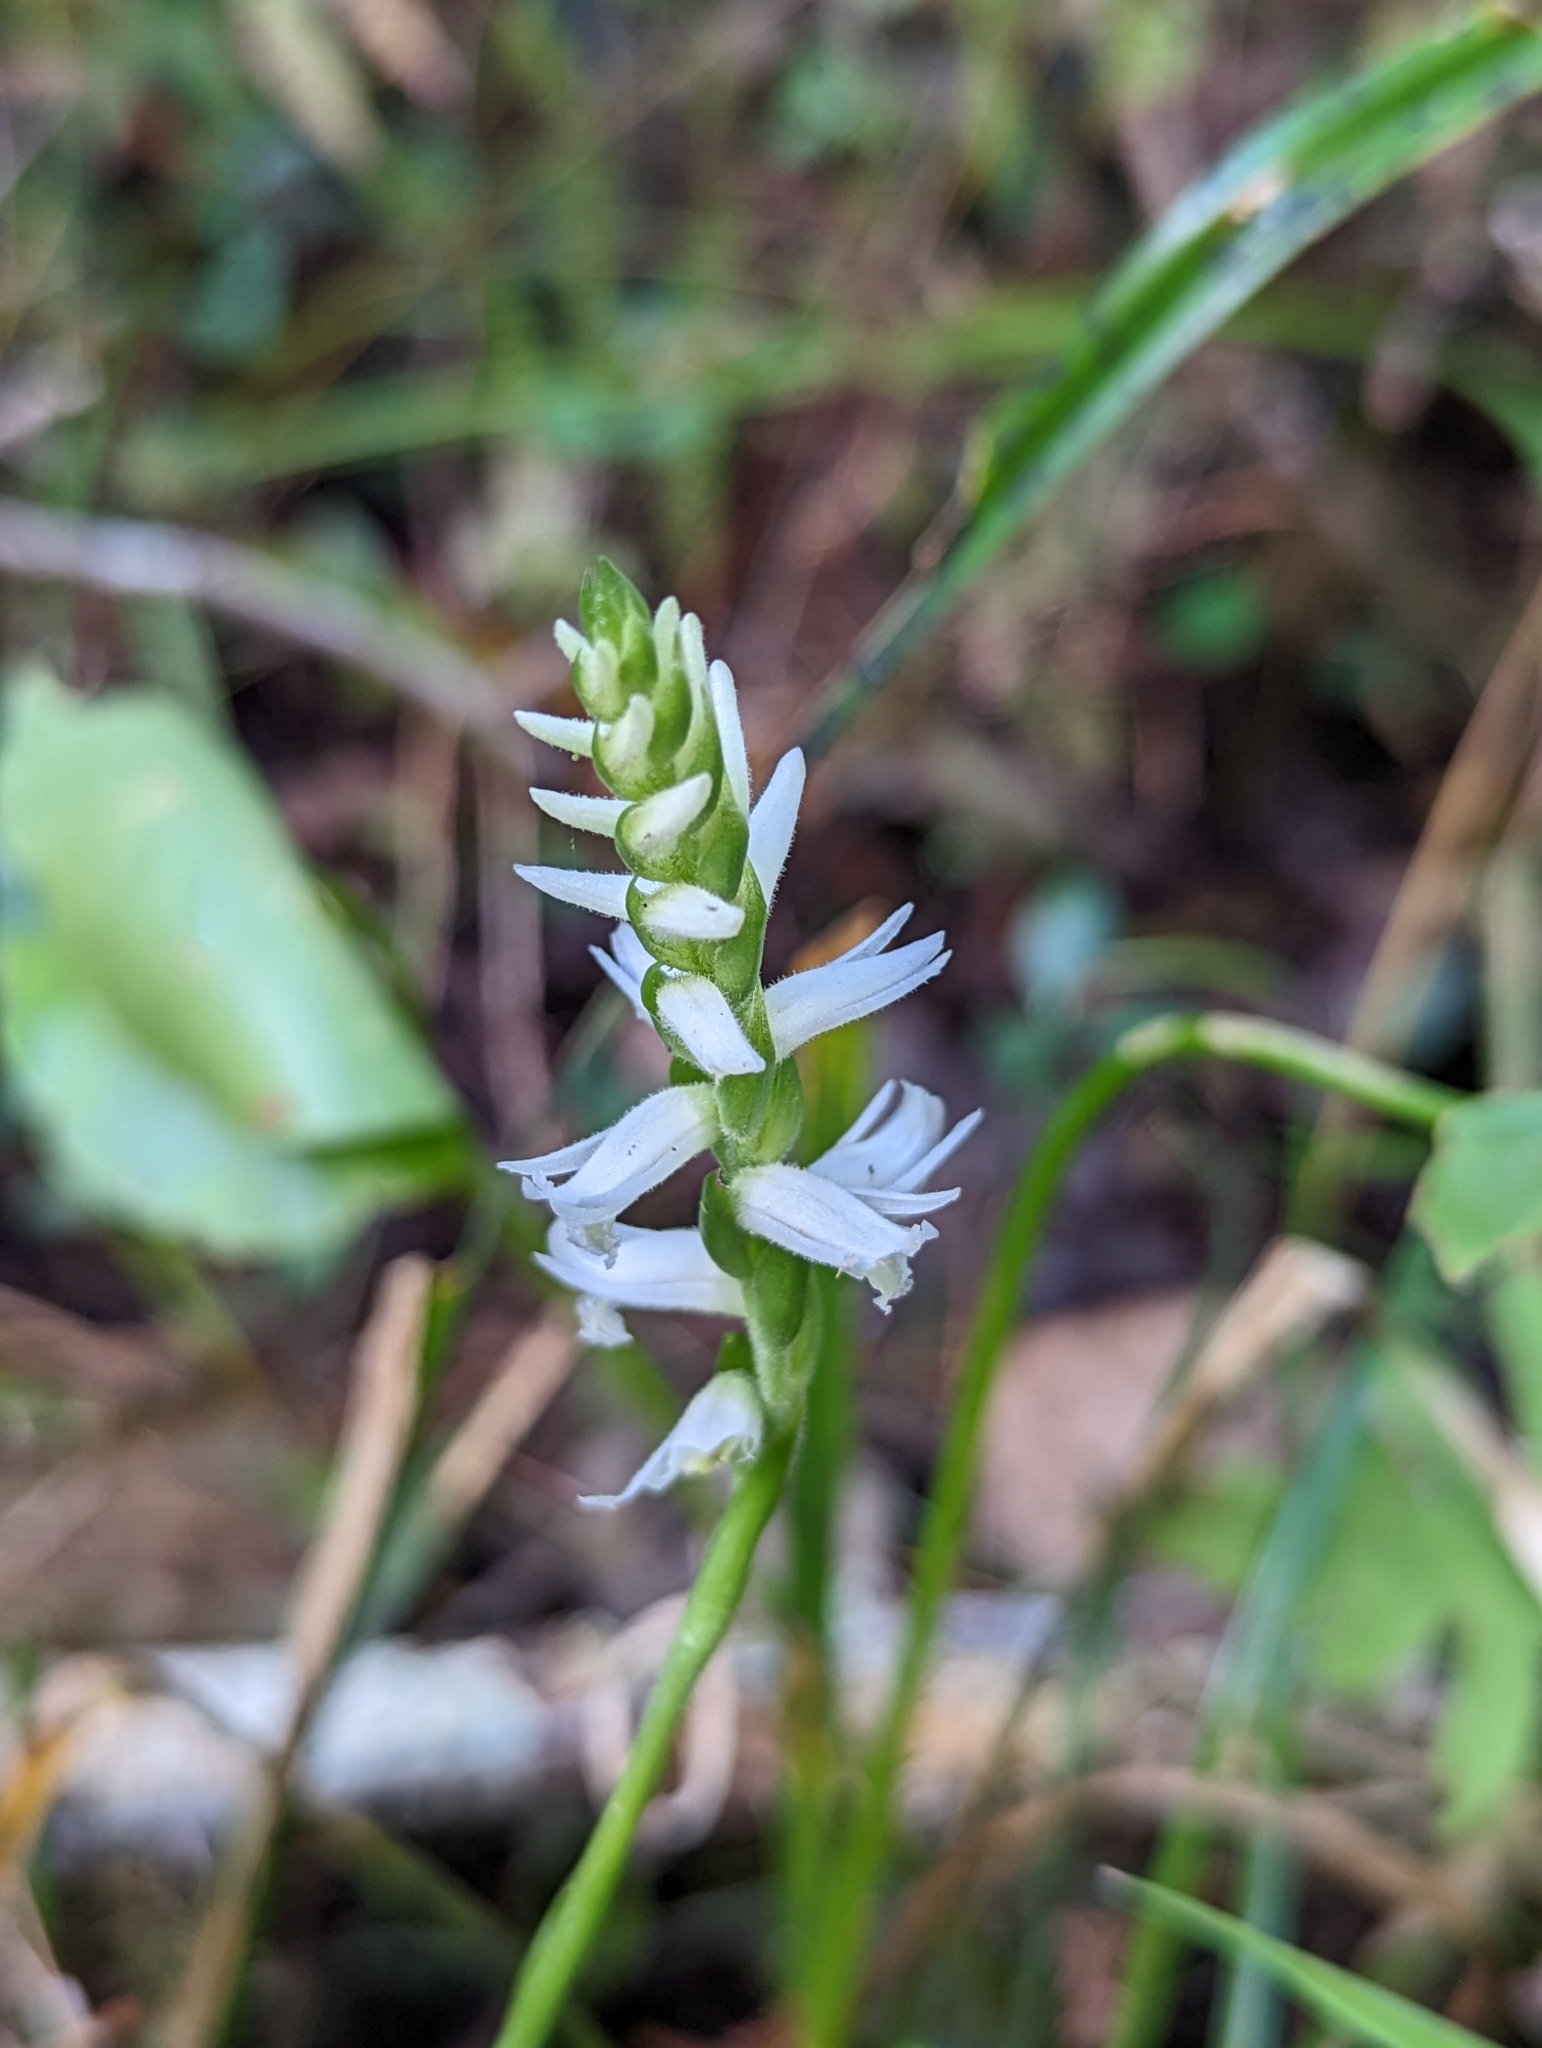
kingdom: Plantae
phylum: Tracheophyta
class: Liliopsida
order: Asparagales
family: Orchidaceae
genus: Spiranthes
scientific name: Spiranthes odorata
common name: Marsh ladies'-tresses
